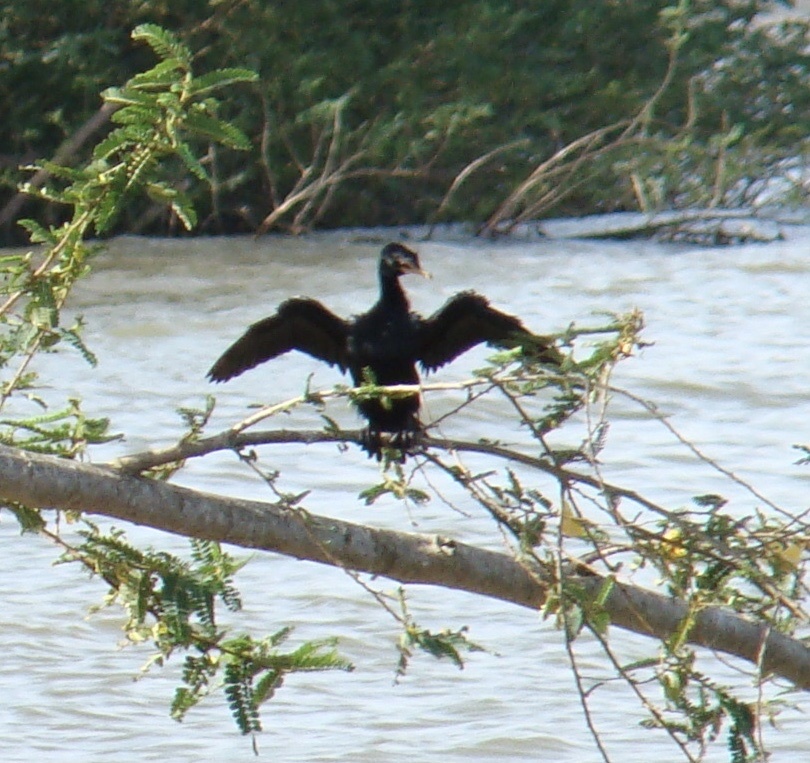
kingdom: Animalia
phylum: Chordata
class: Aves
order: Suliformes
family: Phalacrocoracidae
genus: Microcarbo
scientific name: Microcarbo africanus
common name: Long-tailed cormorant
